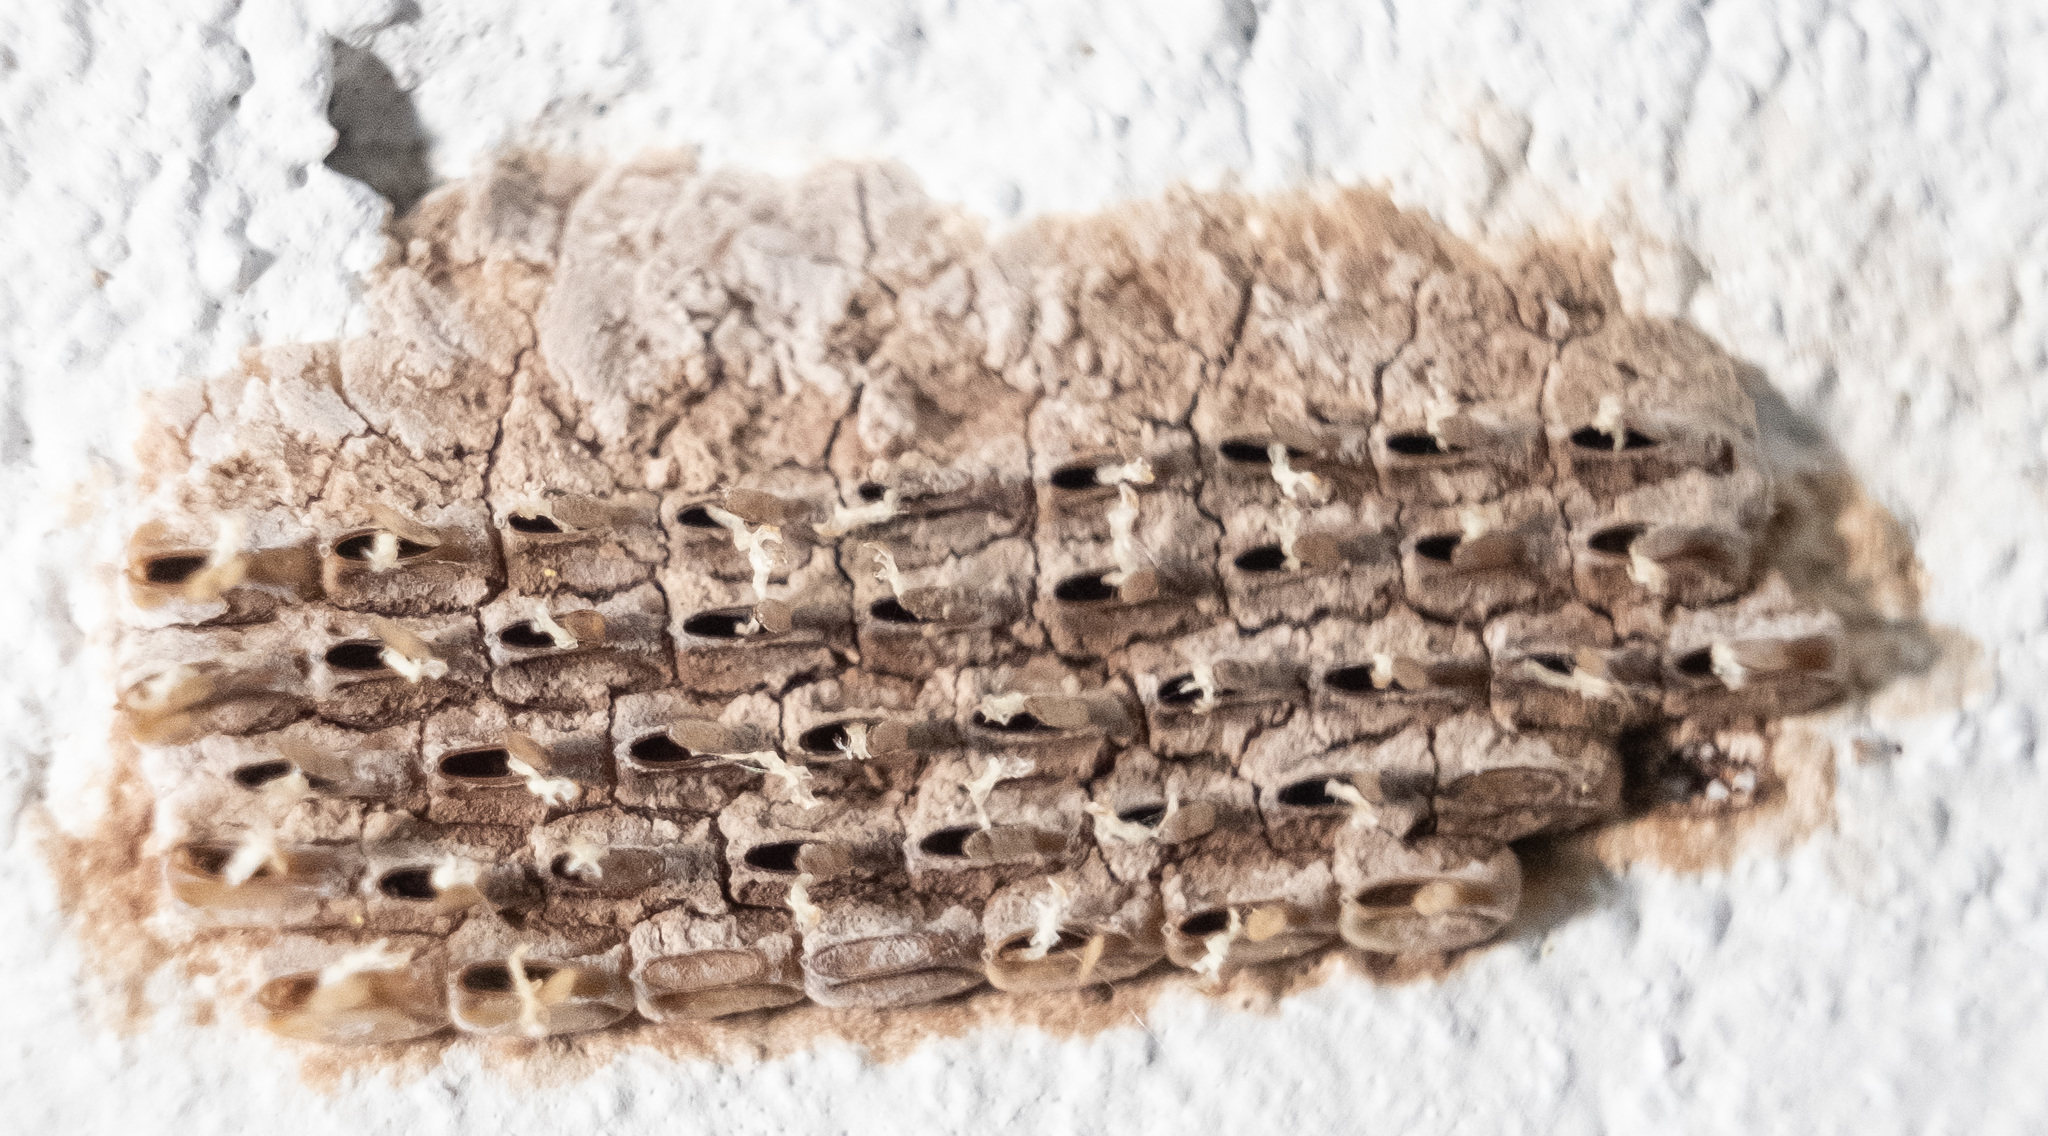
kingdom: Animalia
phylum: Arthropoda
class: Insecta
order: Hemiptera
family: Fulgoridae
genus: Lycorma
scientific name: Lycorma delicatula
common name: Spotted lanternfly
